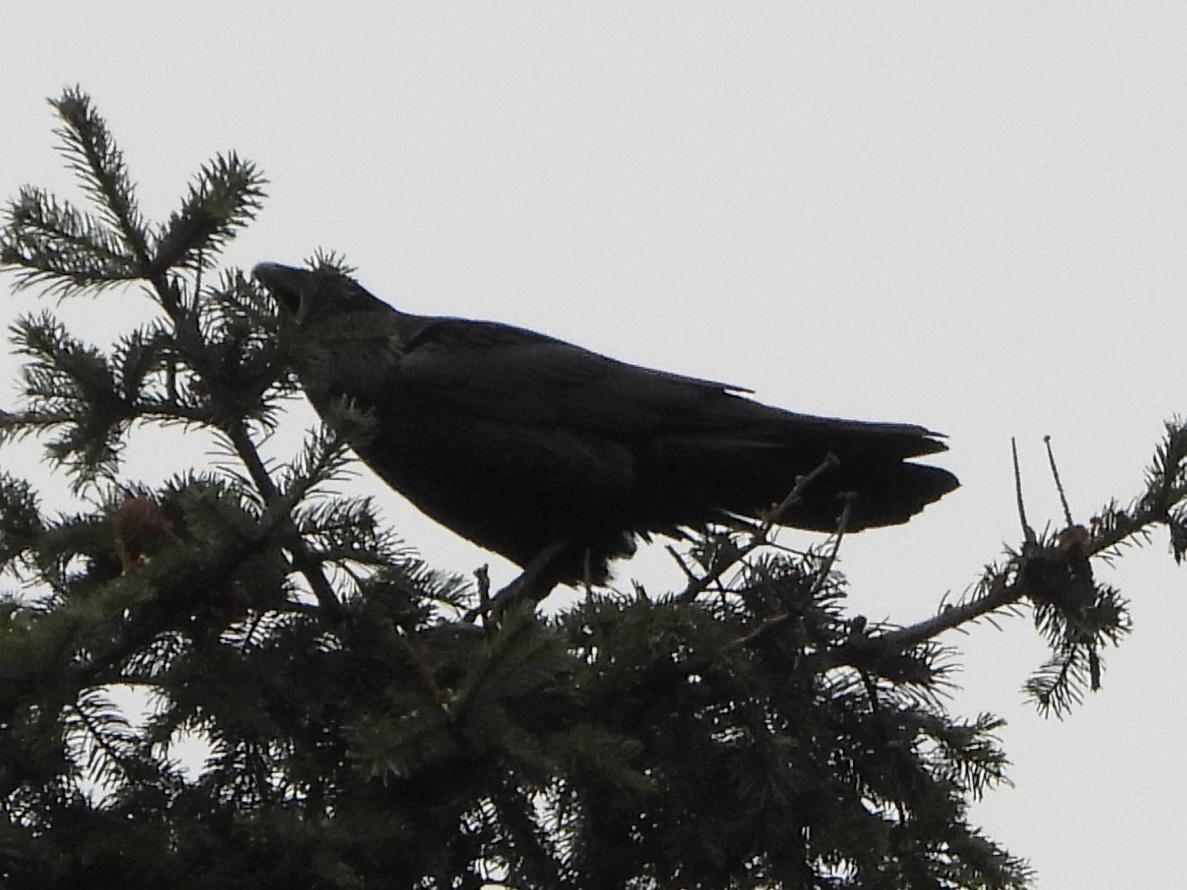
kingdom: Animalia
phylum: Chordata
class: Aves
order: Passeriformes
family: Corvidae
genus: Corvus
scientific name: Corvus corax
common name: Common raven
